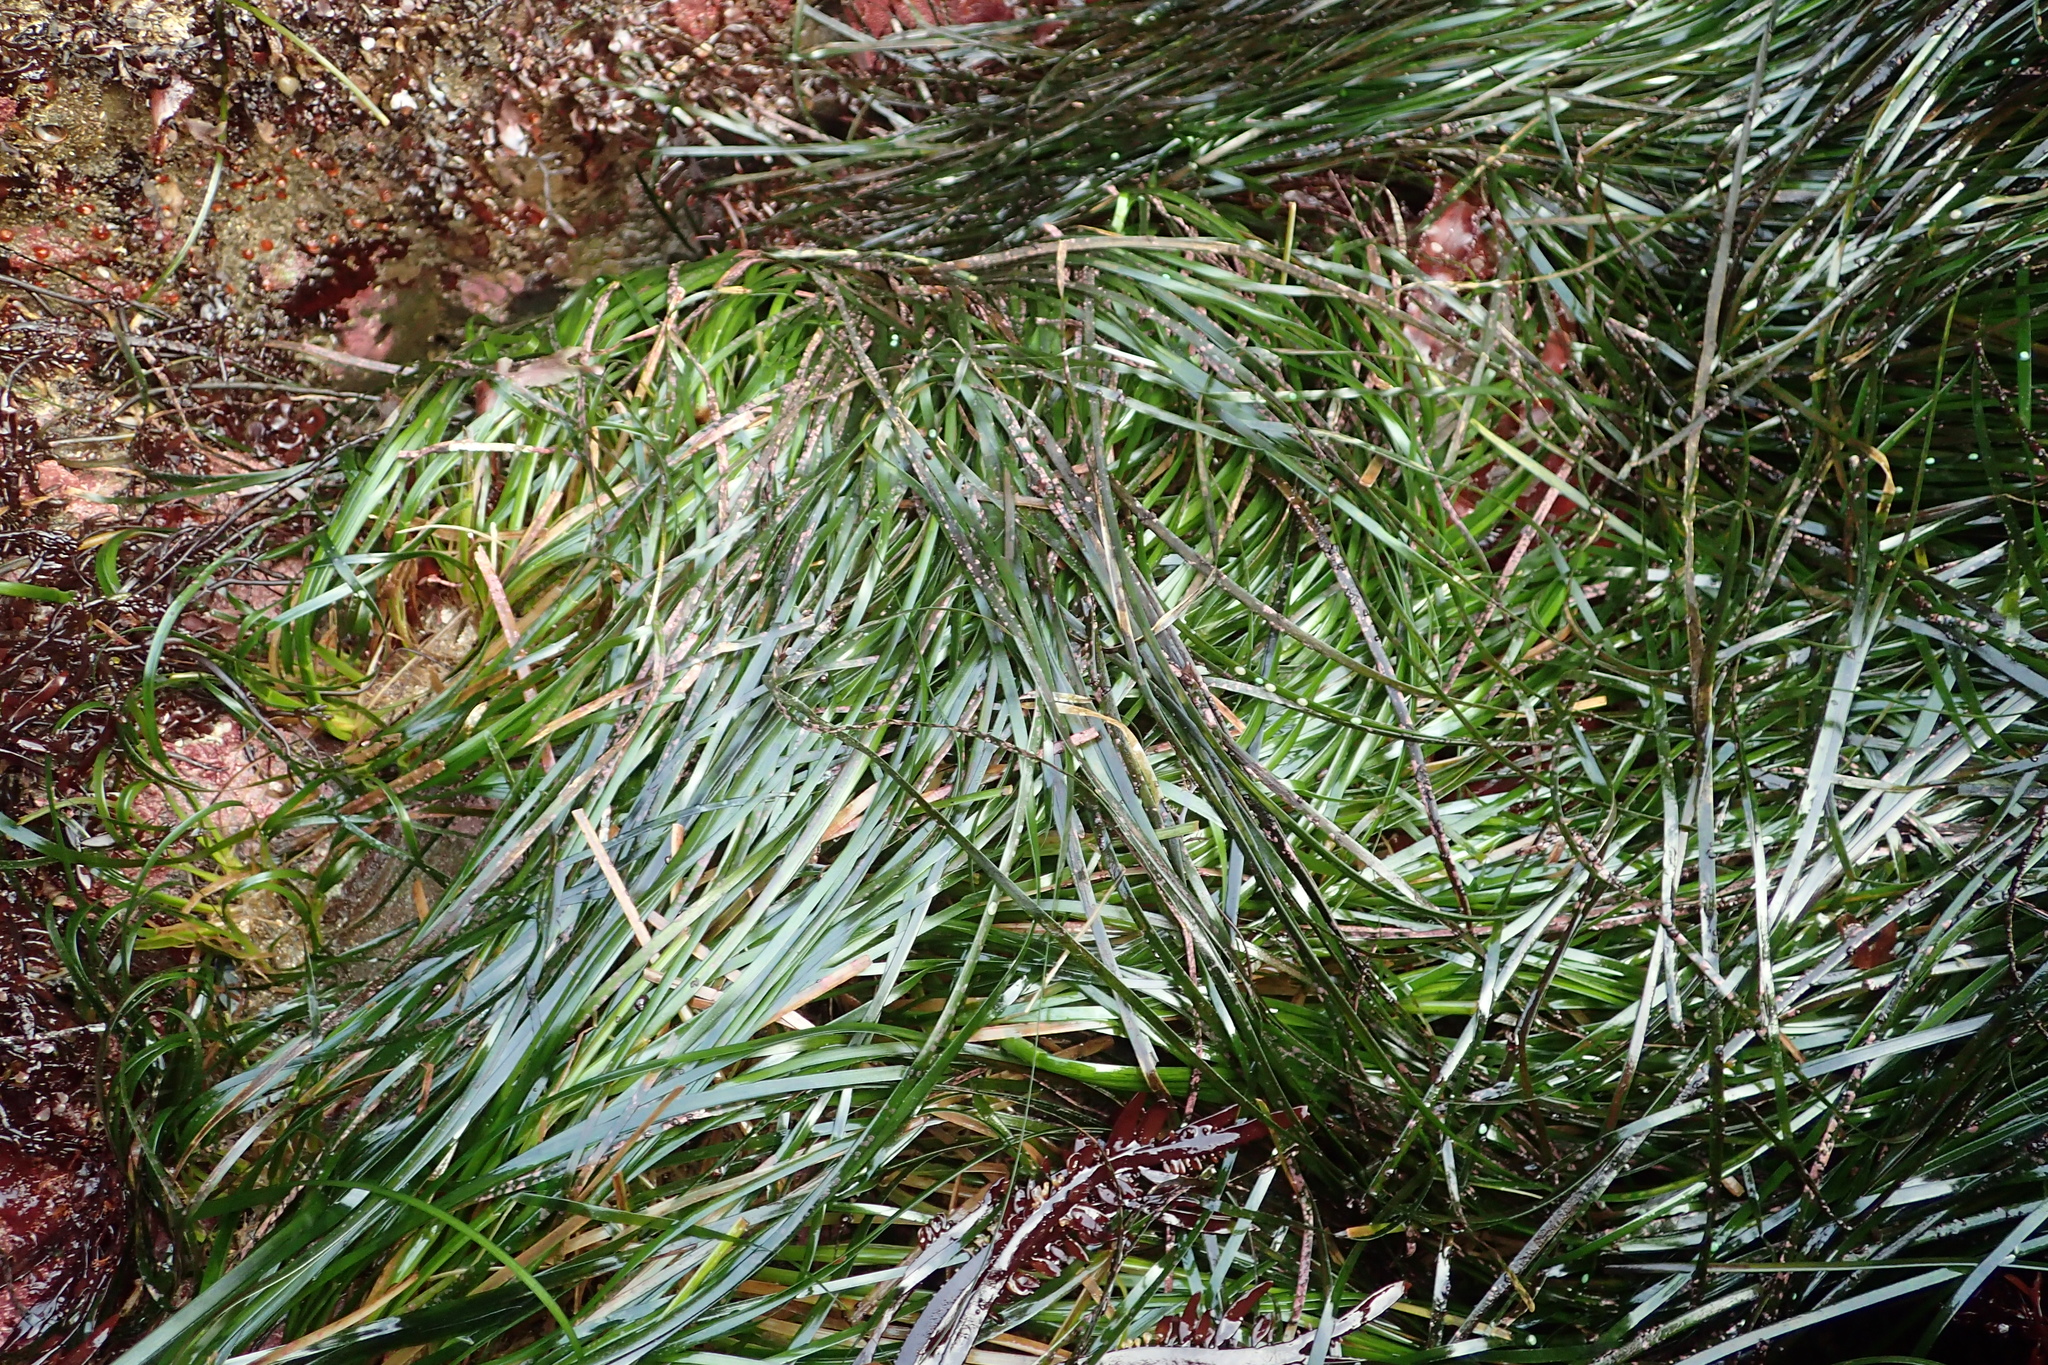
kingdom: Plantae
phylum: Tracheophyta
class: Liliopsida
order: Alismatales
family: Zosteraceae
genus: Phyllospadix
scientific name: Phyllospadix scouleri
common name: Species code: ps
